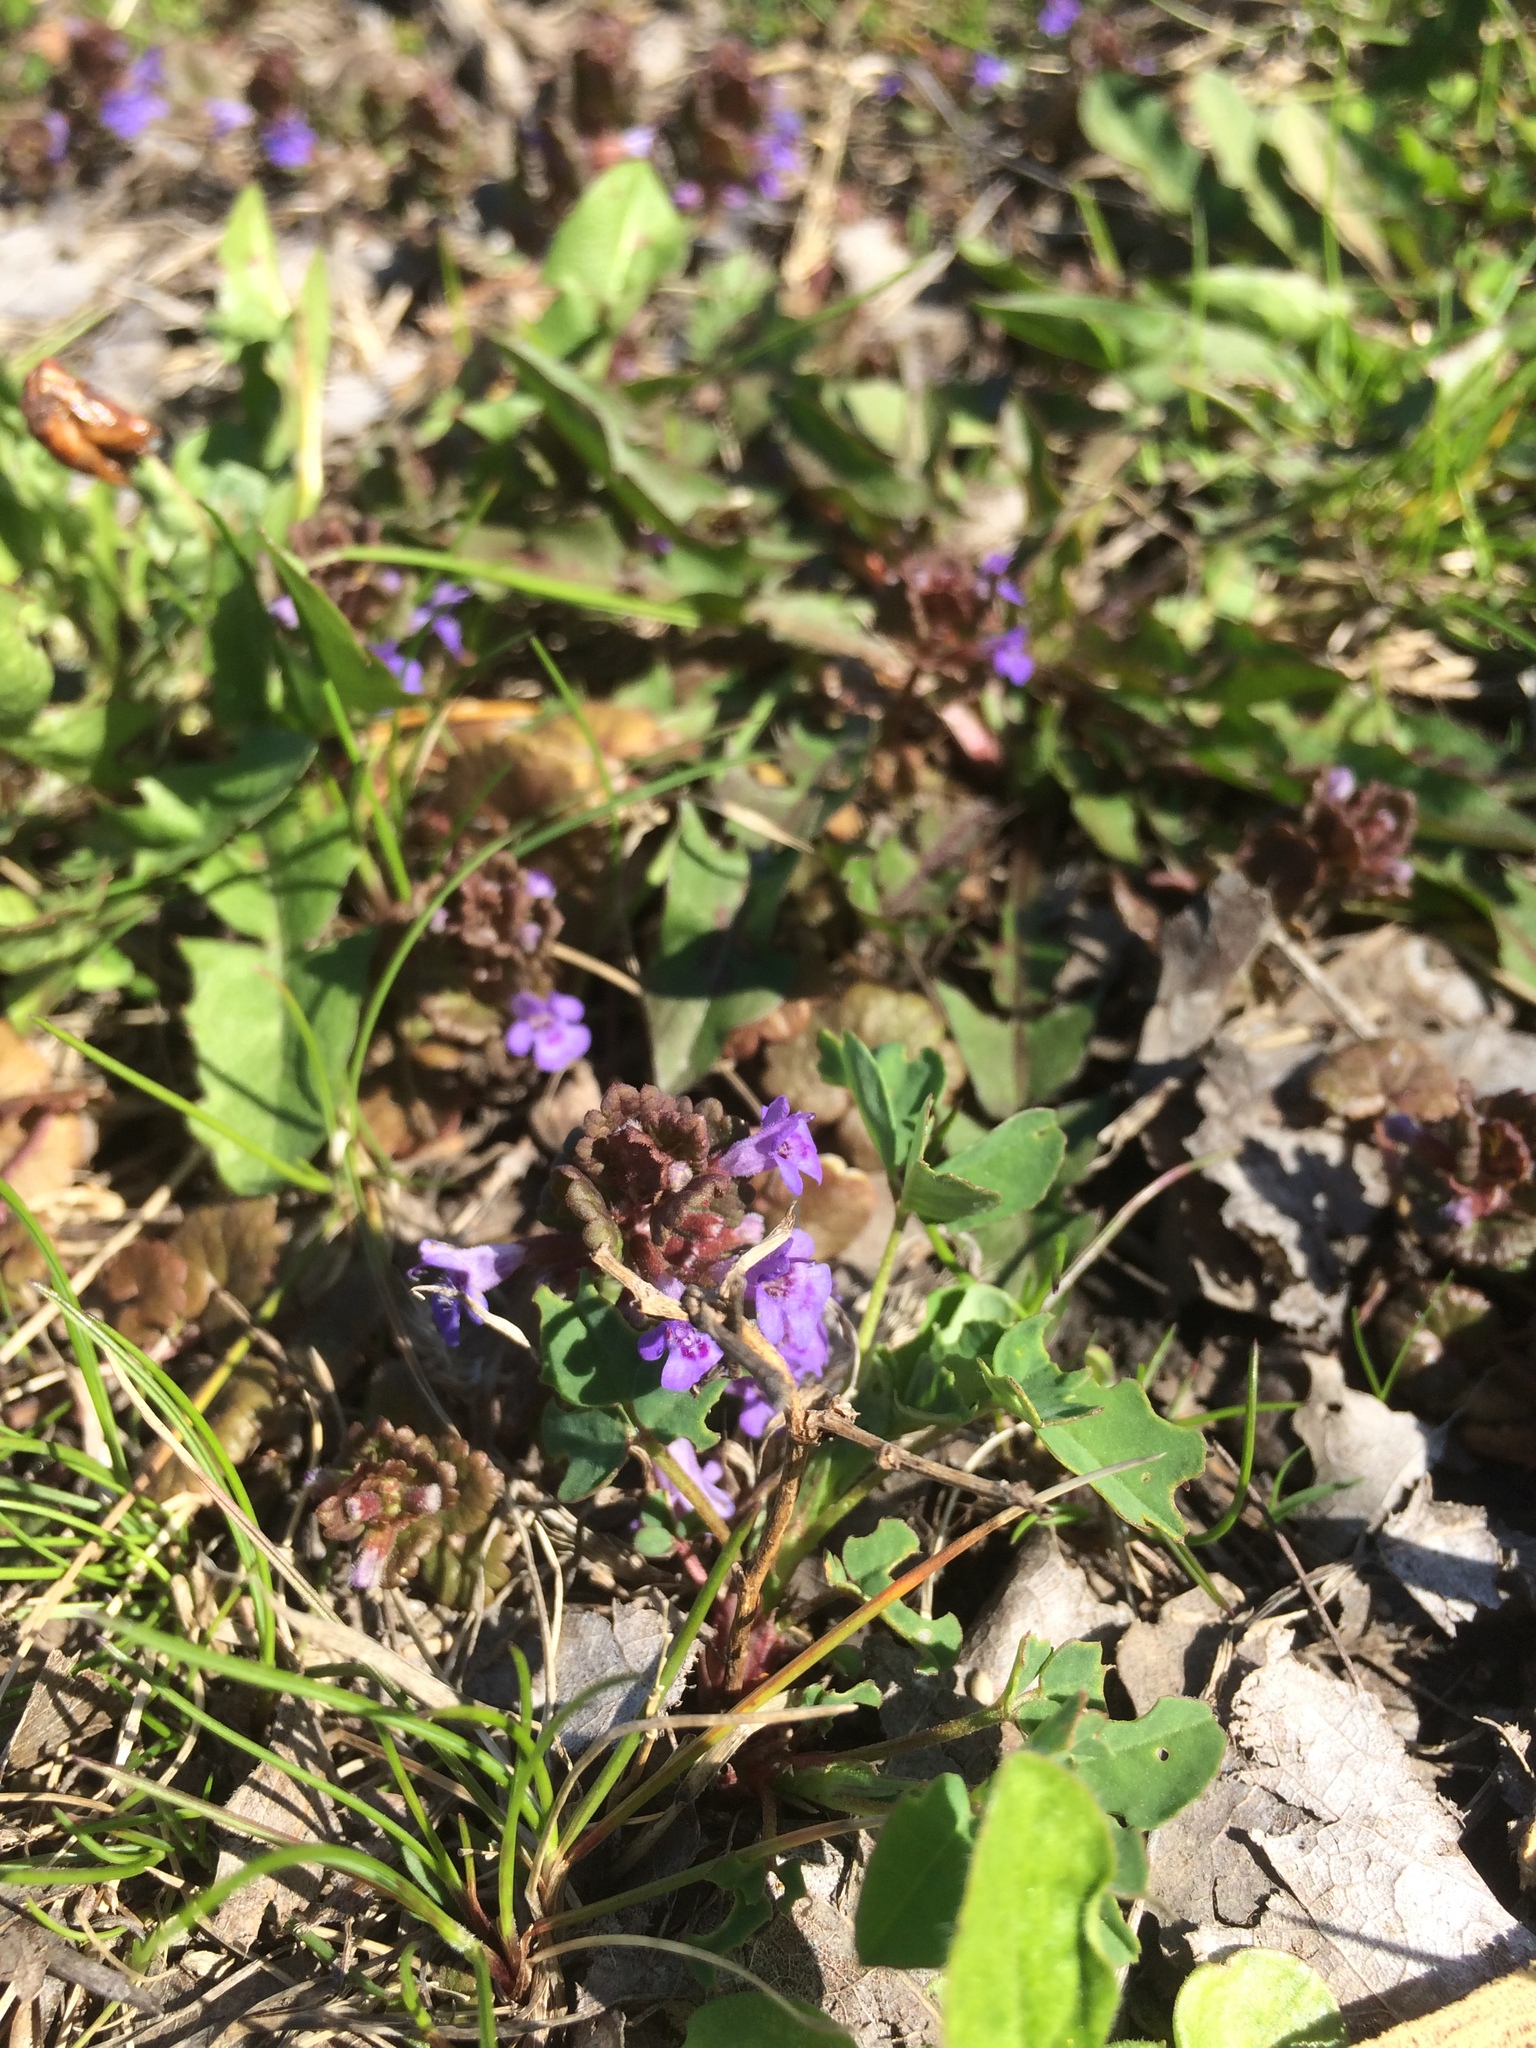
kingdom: Plantae
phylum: Tracheophyta
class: Magnoliopsida
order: Lamiales
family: Lamiaceae
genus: Glechoma
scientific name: Glechoma hederacea
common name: Ground ivy
